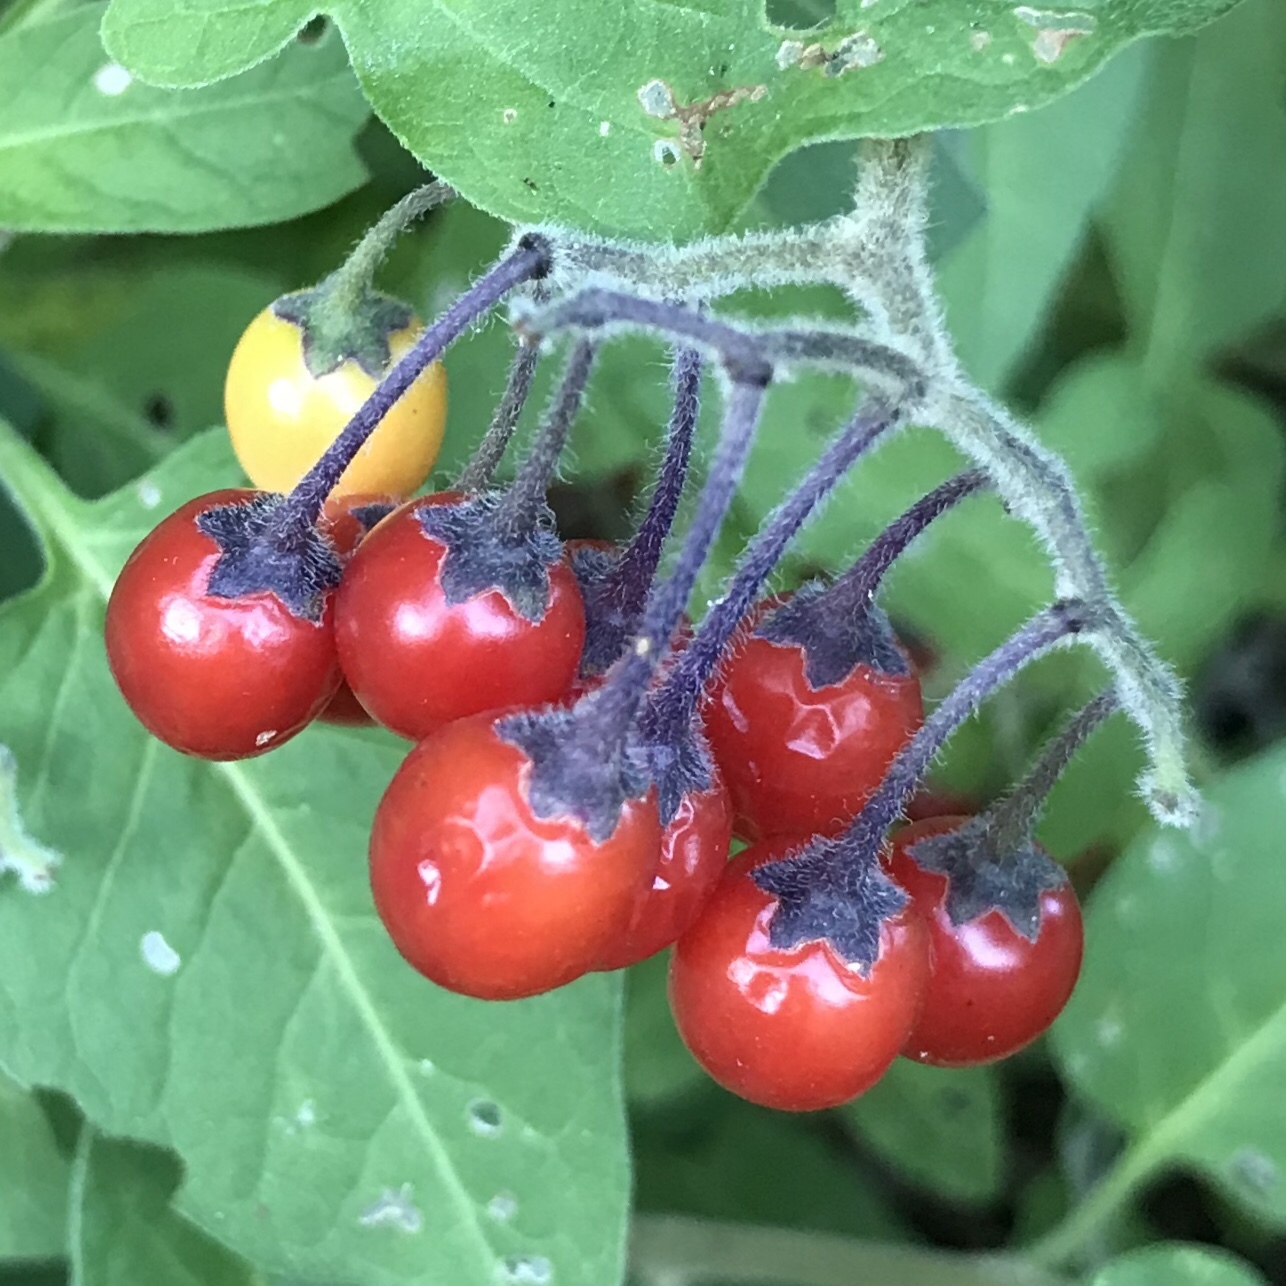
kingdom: Plantae
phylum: Tracheophyta
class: Magnoliopsida
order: Solanales
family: Solanaceae
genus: Solanum
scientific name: Solanum dulcamara
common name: Climbing nightshade
